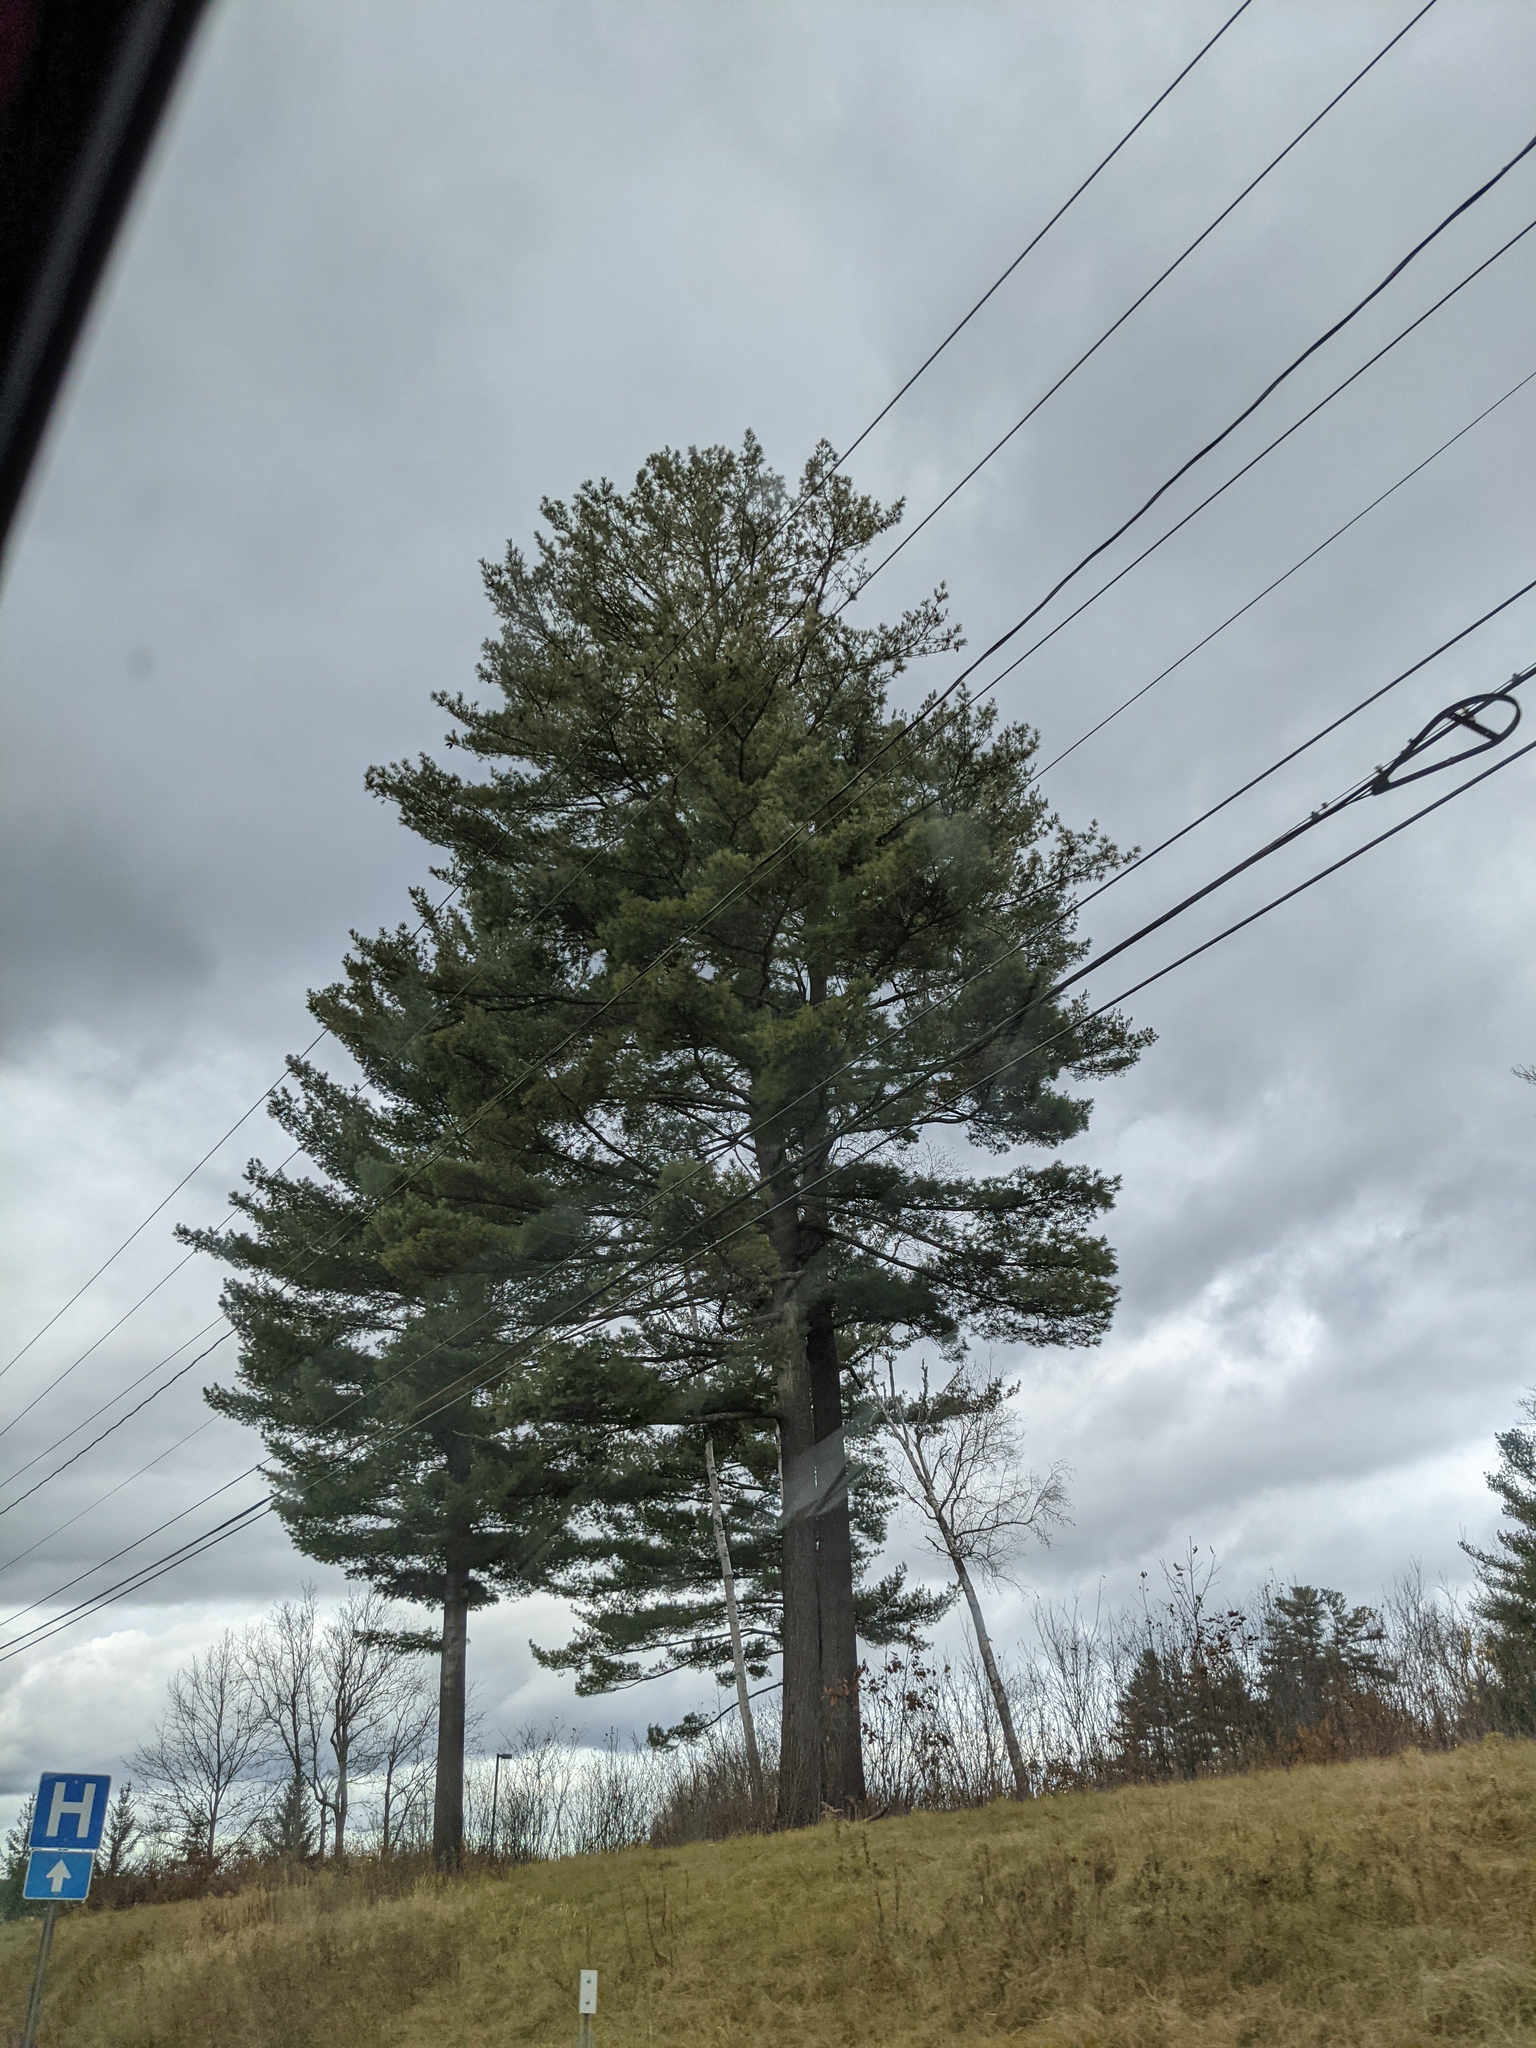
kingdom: Plantae
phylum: Tracheophyta
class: Pinopsida
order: Pinales
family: Pinaceae
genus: Pinus
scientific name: Pinus strobus
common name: Weymouth pine
